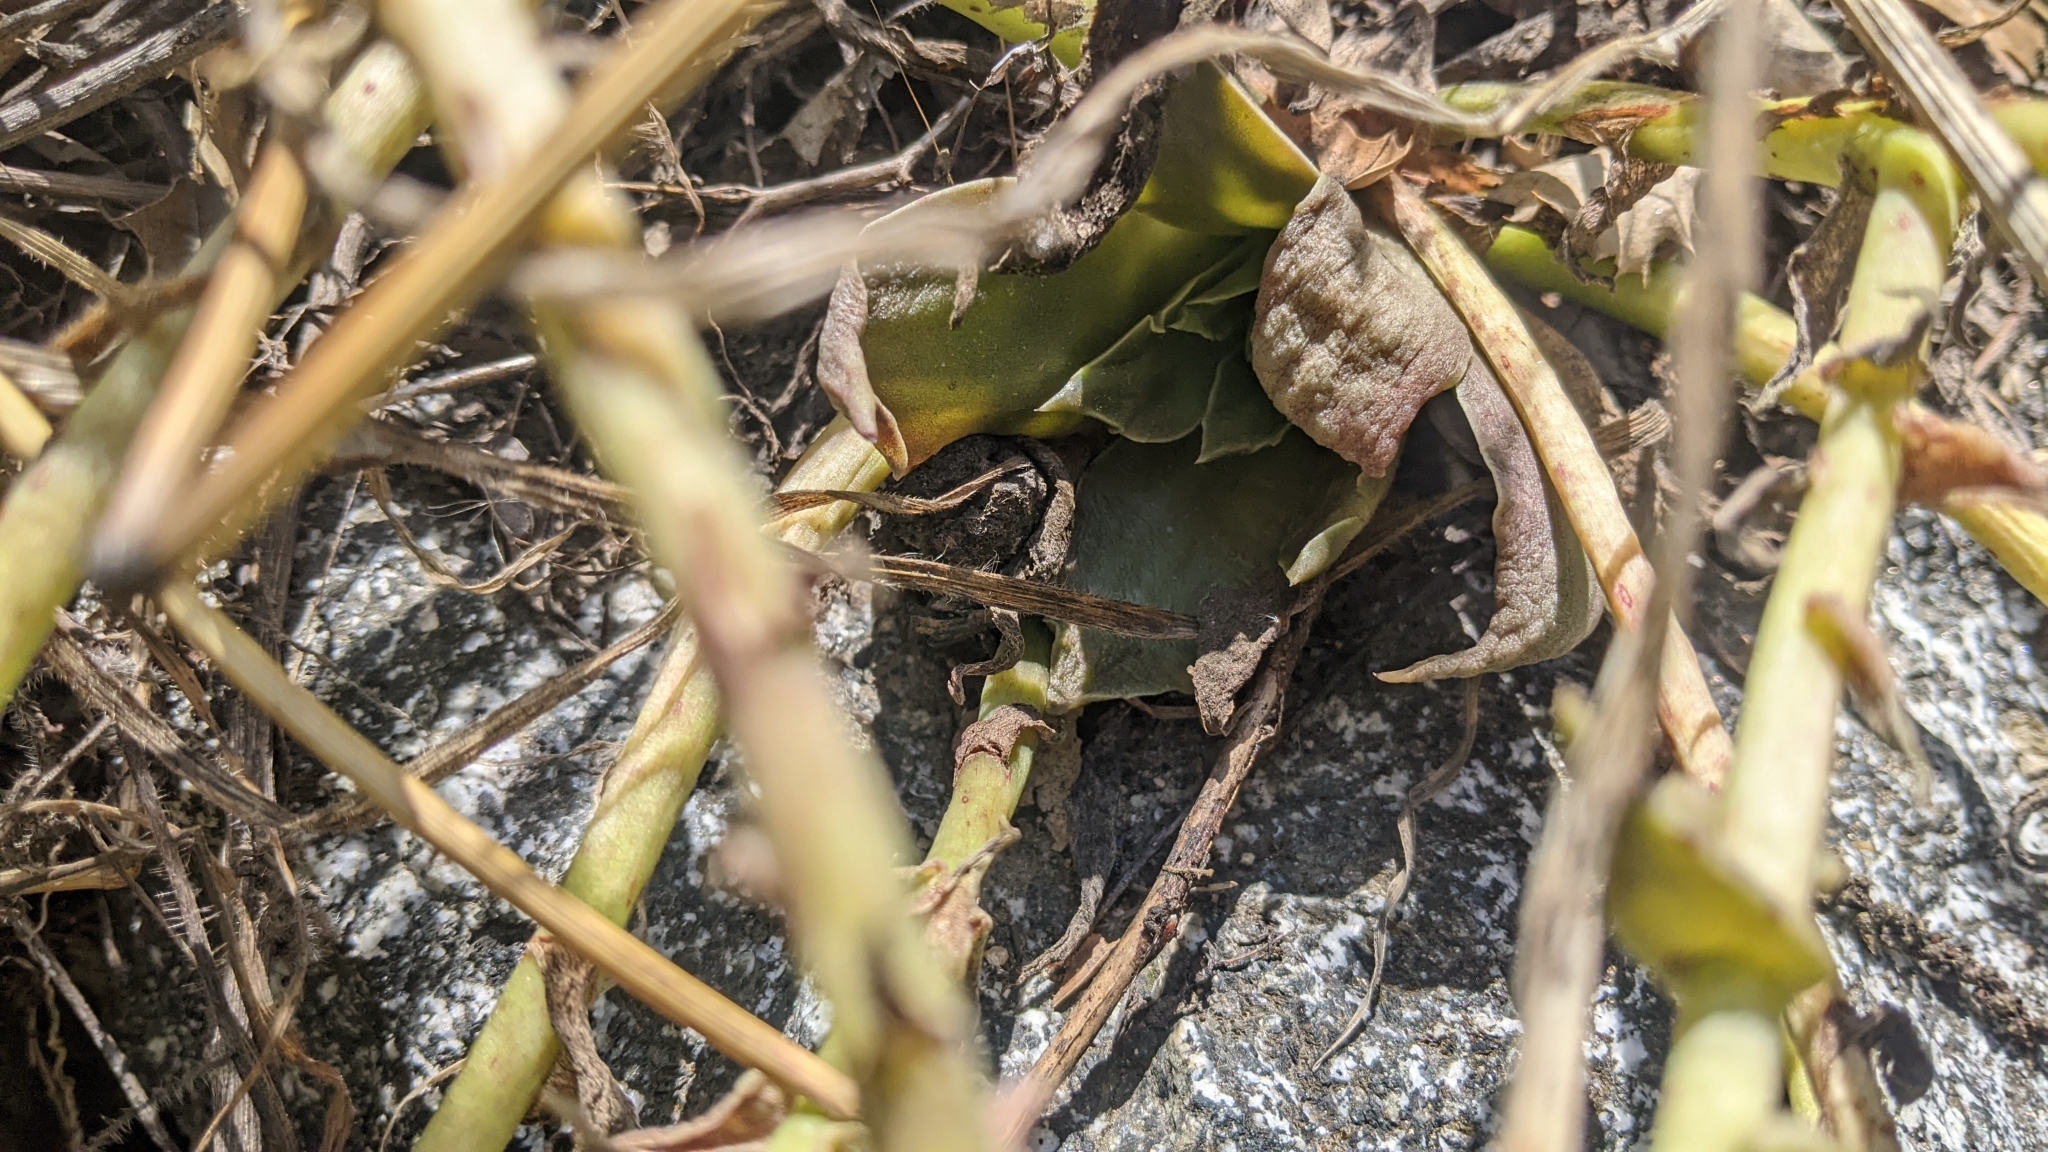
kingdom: Plantae
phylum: Tracheophyta
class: Magnoliopsida
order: Saxifragales
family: Crassulaceae
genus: Dudleya
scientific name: Dudleya lanceolata
